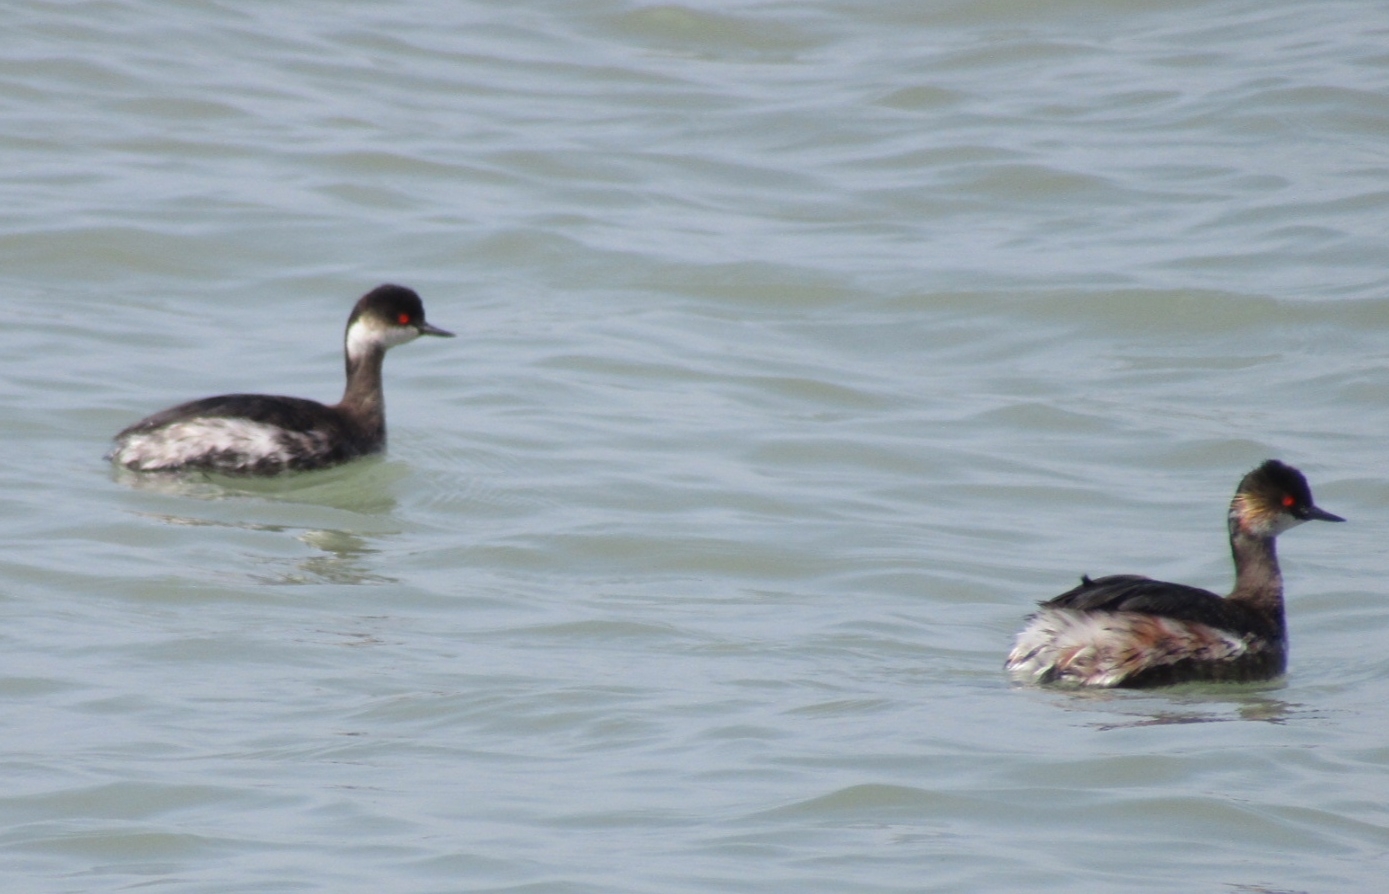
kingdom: Animalia
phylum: Chordata
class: Aves
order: Podicipediformes
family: Podicipedidae
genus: Podiceps
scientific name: Podiceps nigricollis
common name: Black-necked grebe
